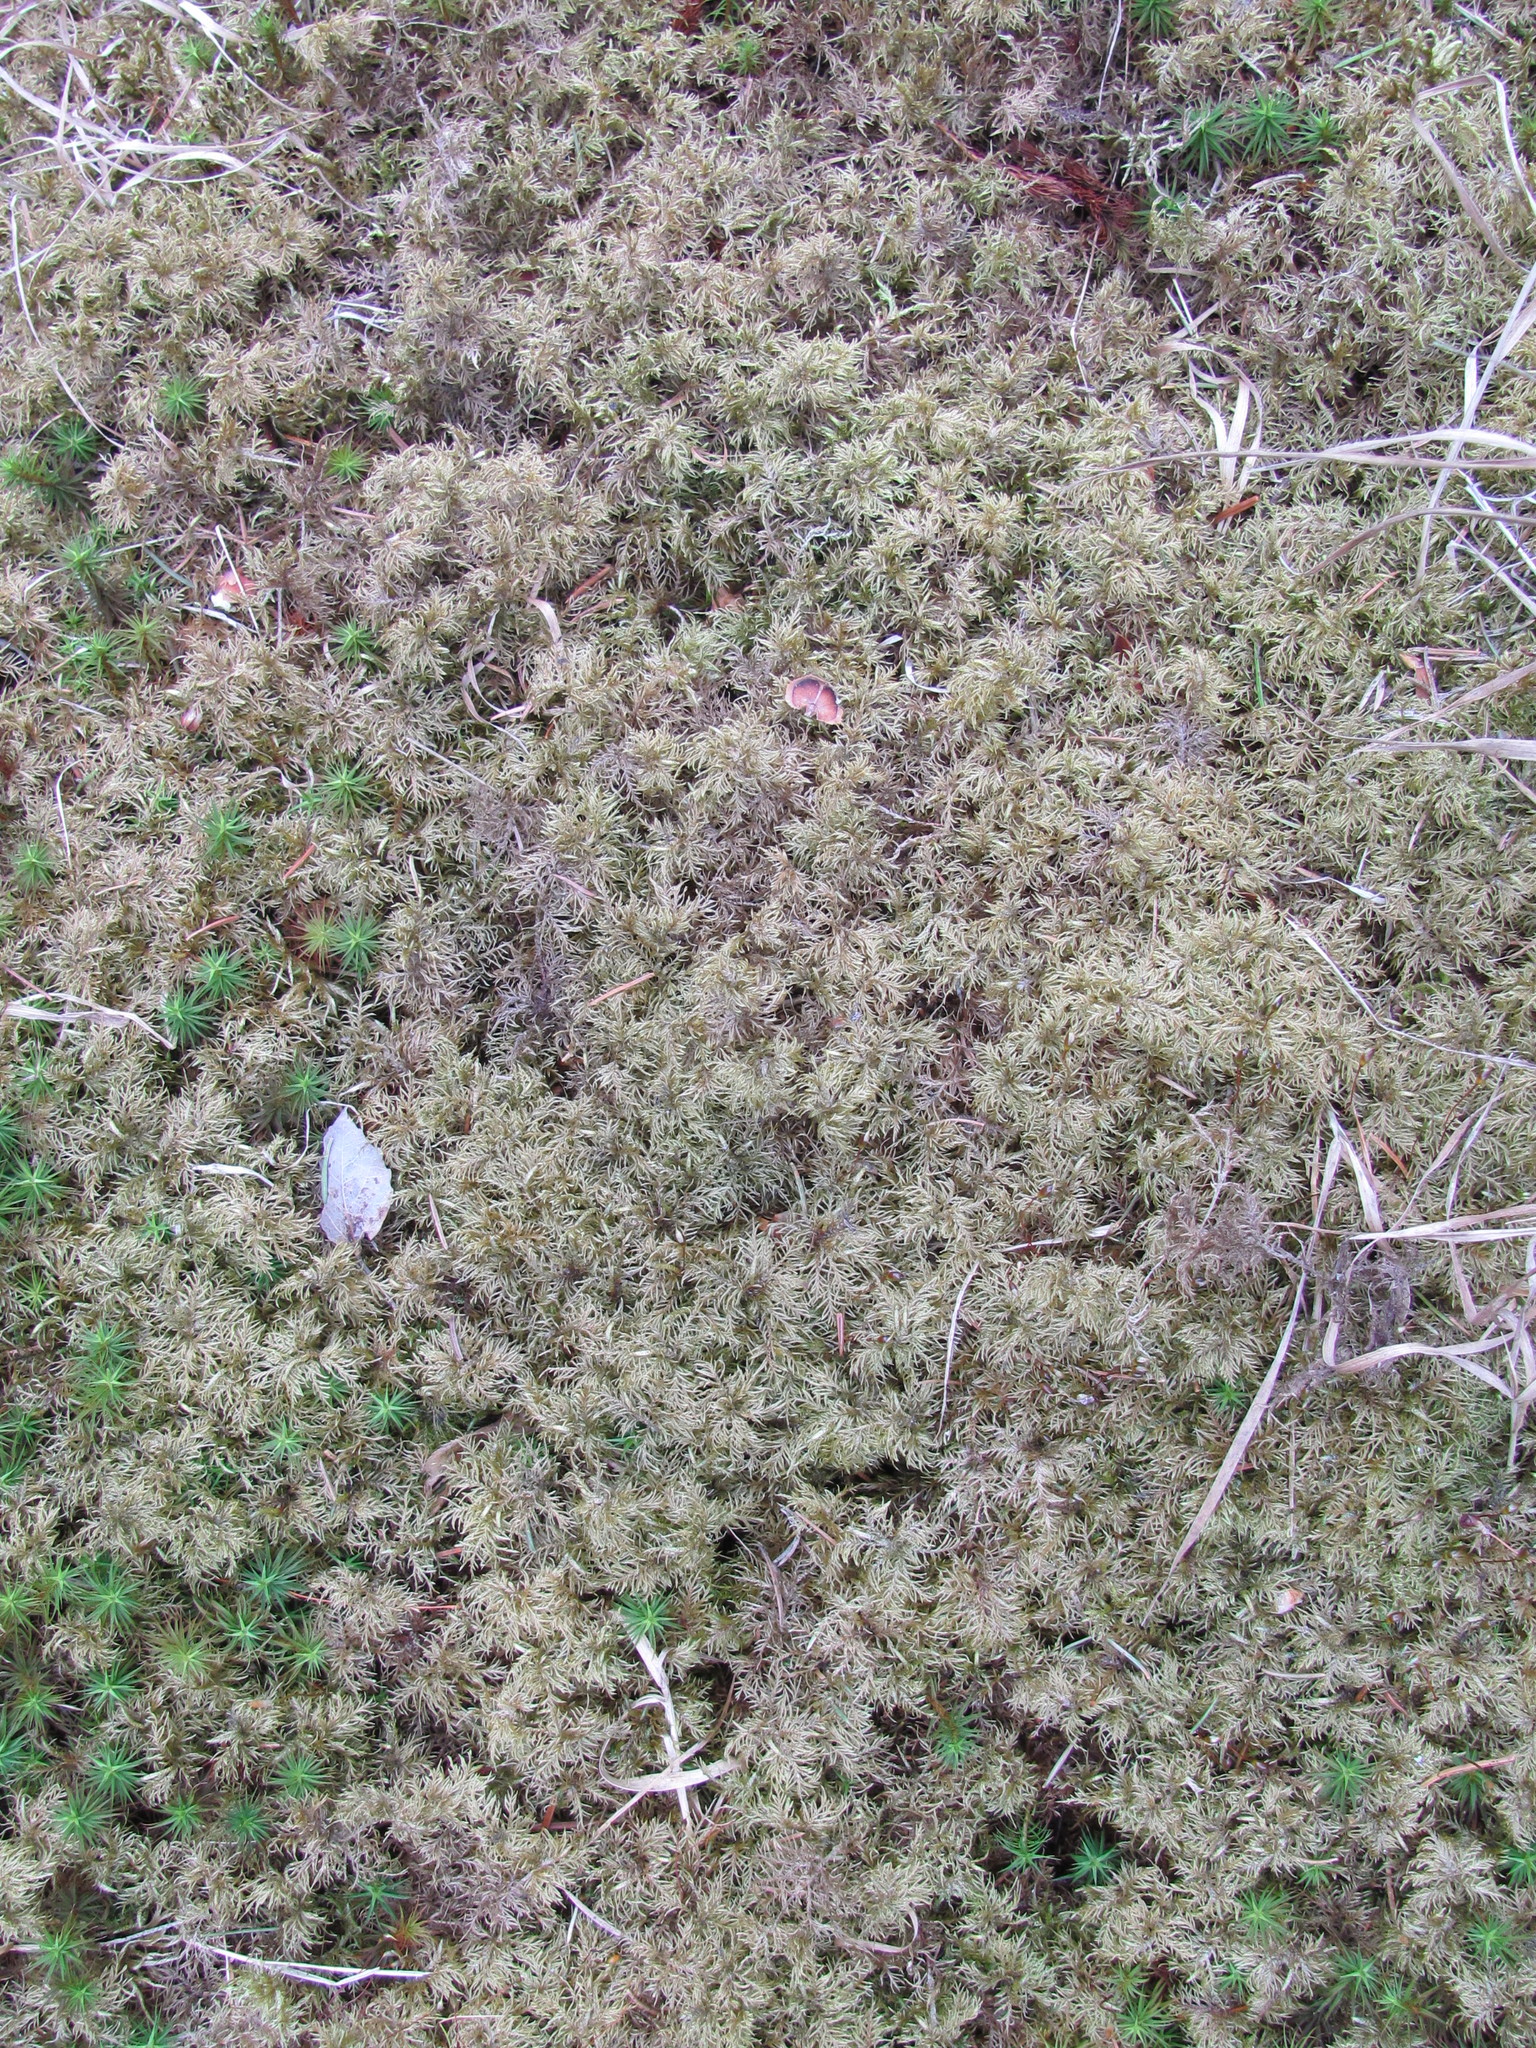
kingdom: Plantae
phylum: Bryophyta
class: Bryopsida
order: Hypnales
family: Hylocomiaceae
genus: Hylocomium
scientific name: Hylocomium splendens
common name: Stairstep moss
